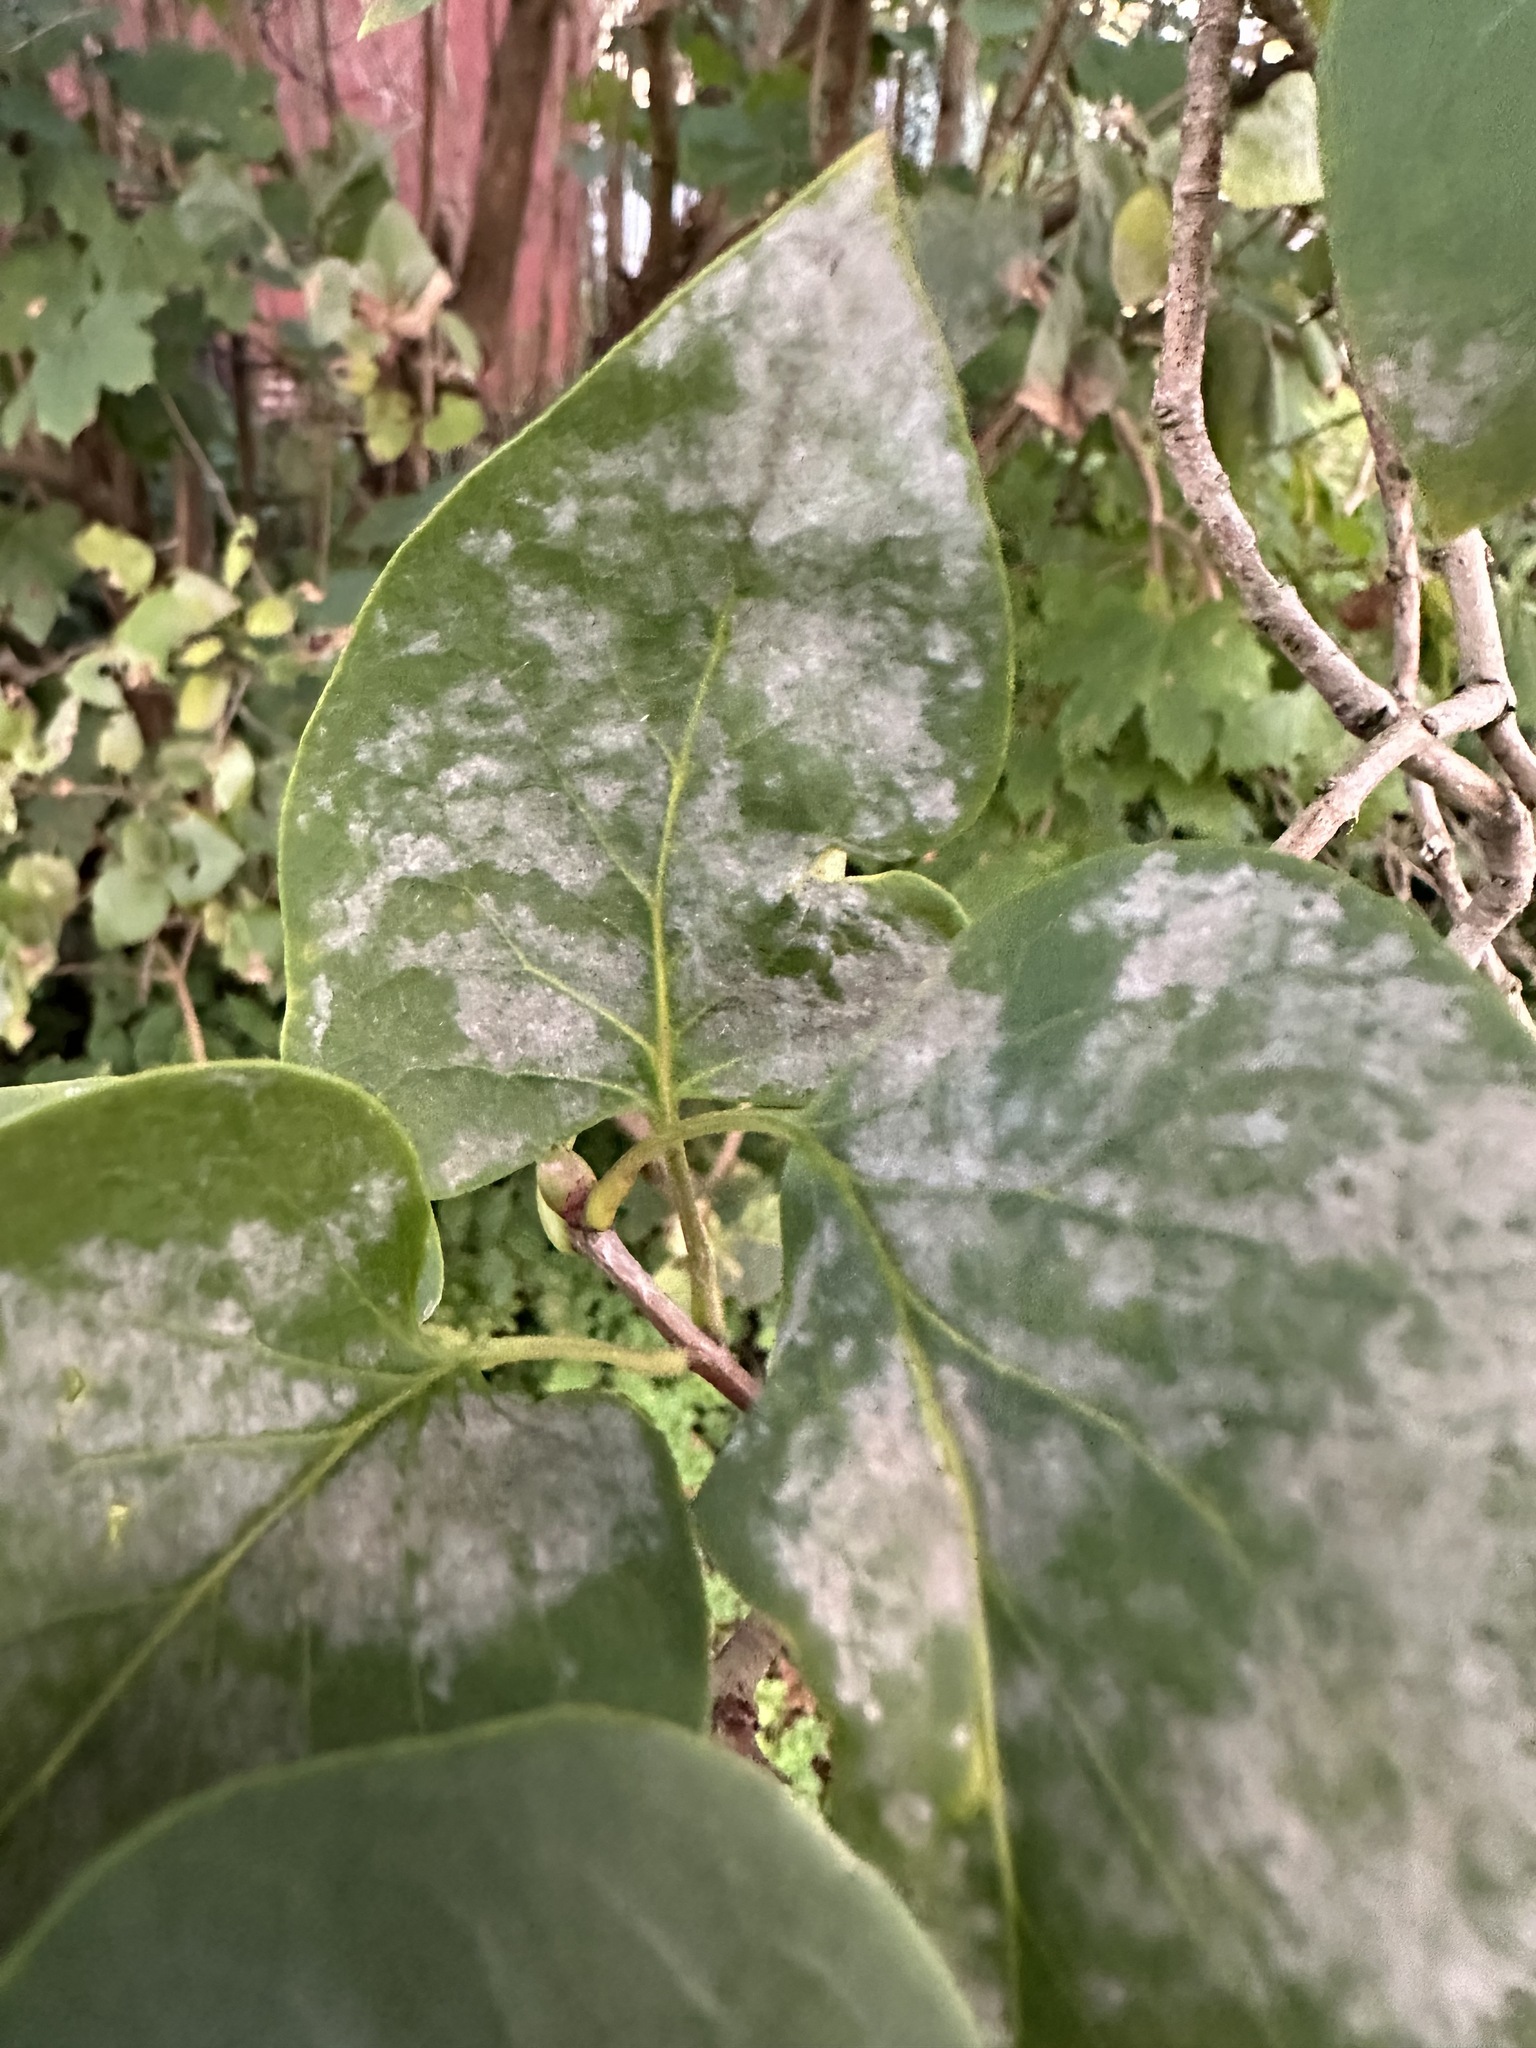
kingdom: Fungi
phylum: Ascomycota
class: Leotiomycetes
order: Helotiales
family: Erysiphaceae
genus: Erysiphe
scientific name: Erysiphe syringae
